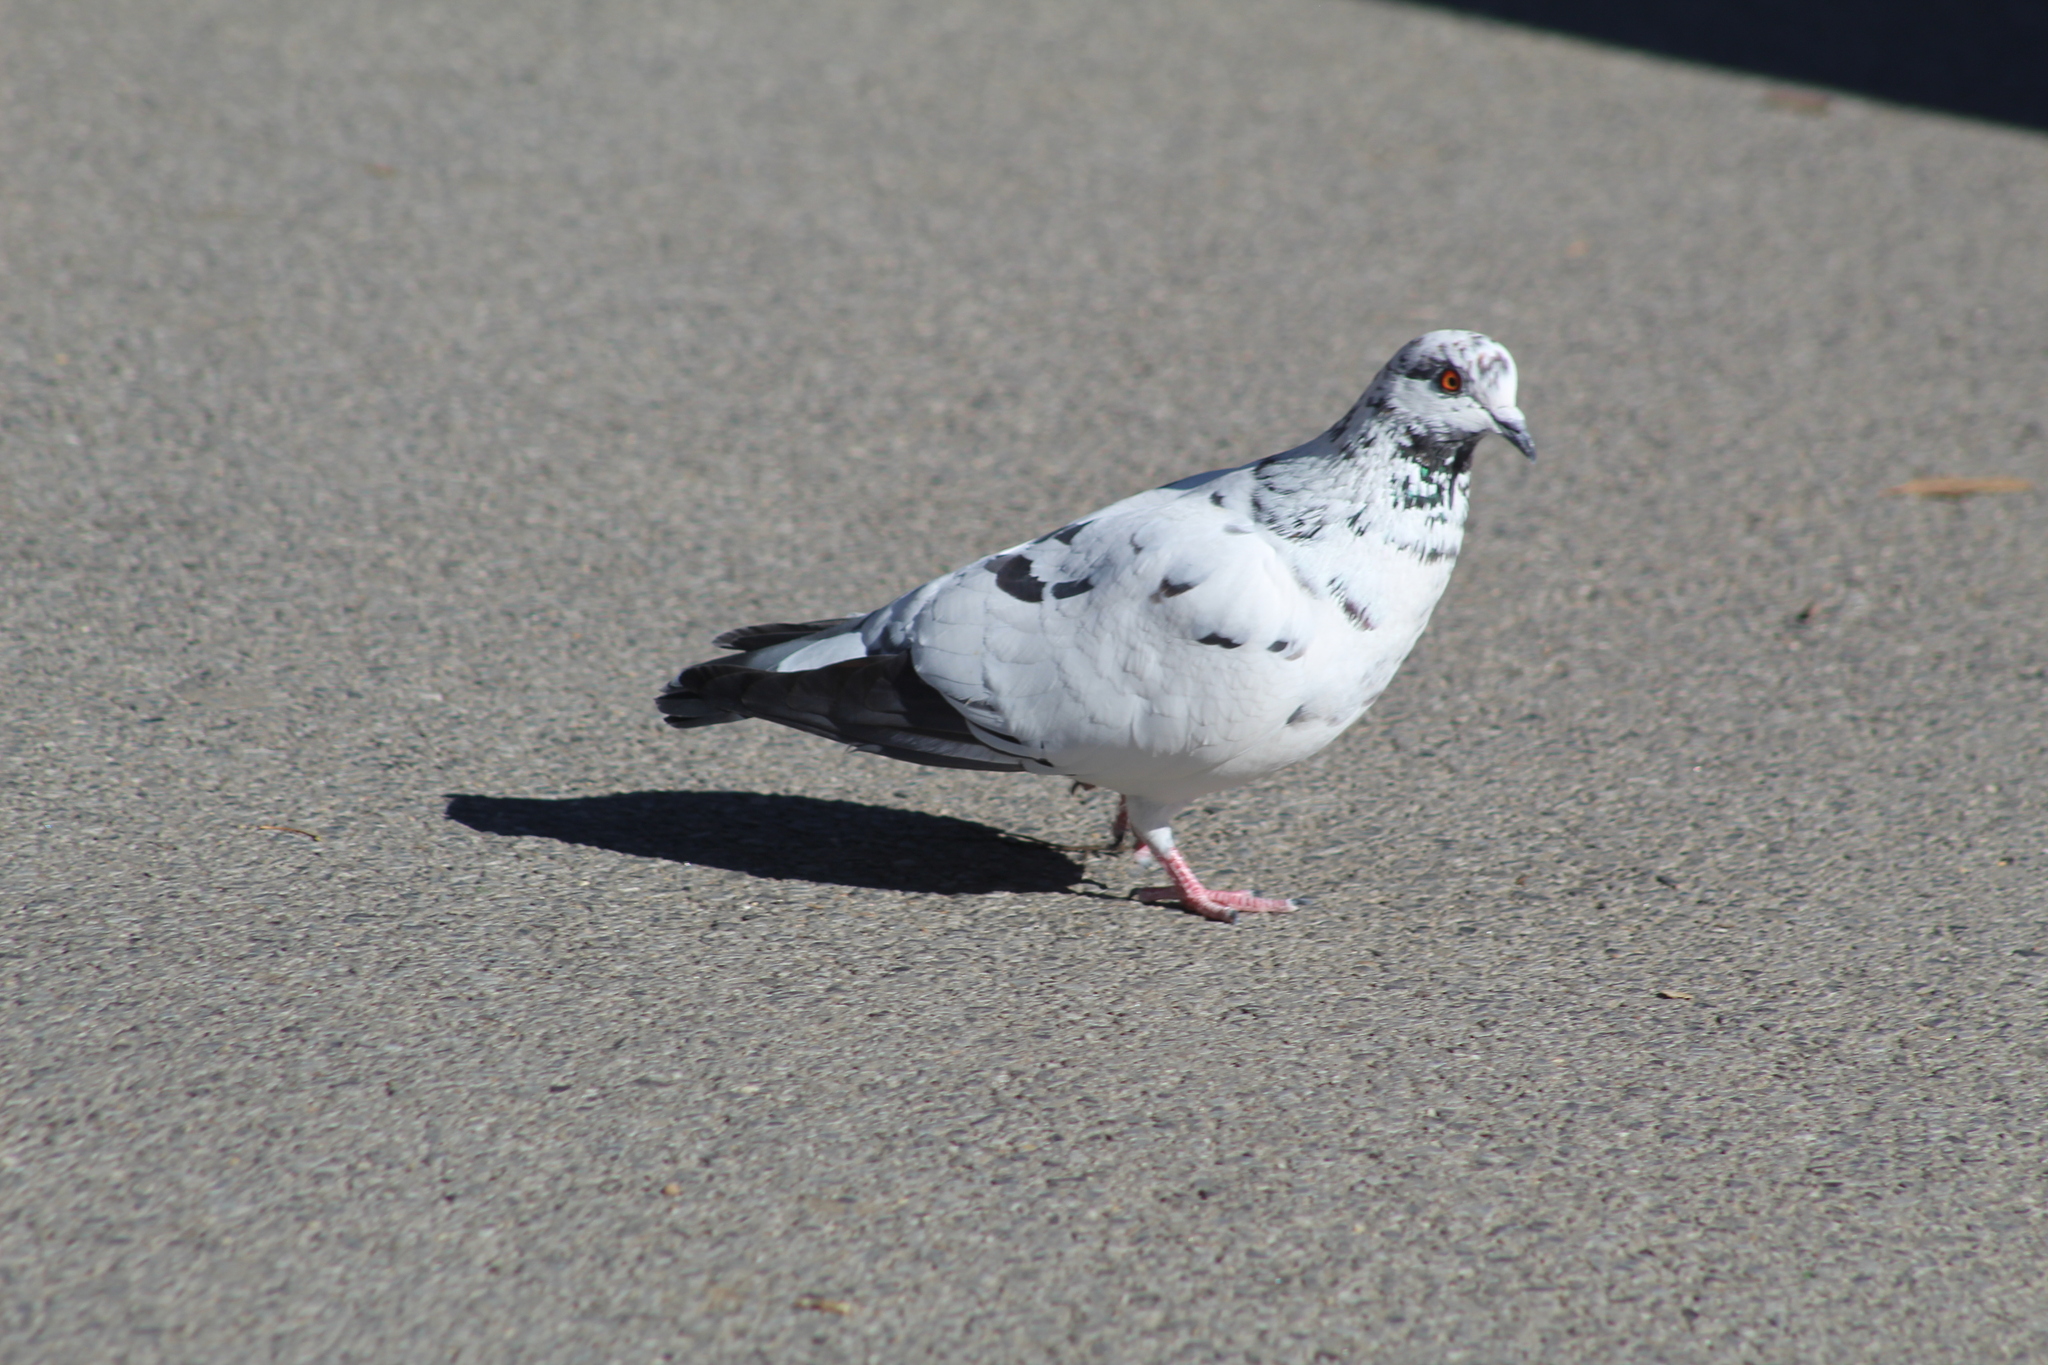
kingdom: Animalia
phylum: Chordata
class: Aves
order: Columbiformes
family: Columbidae
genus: Columba
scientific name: Columba livia
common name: Rock pigeon
